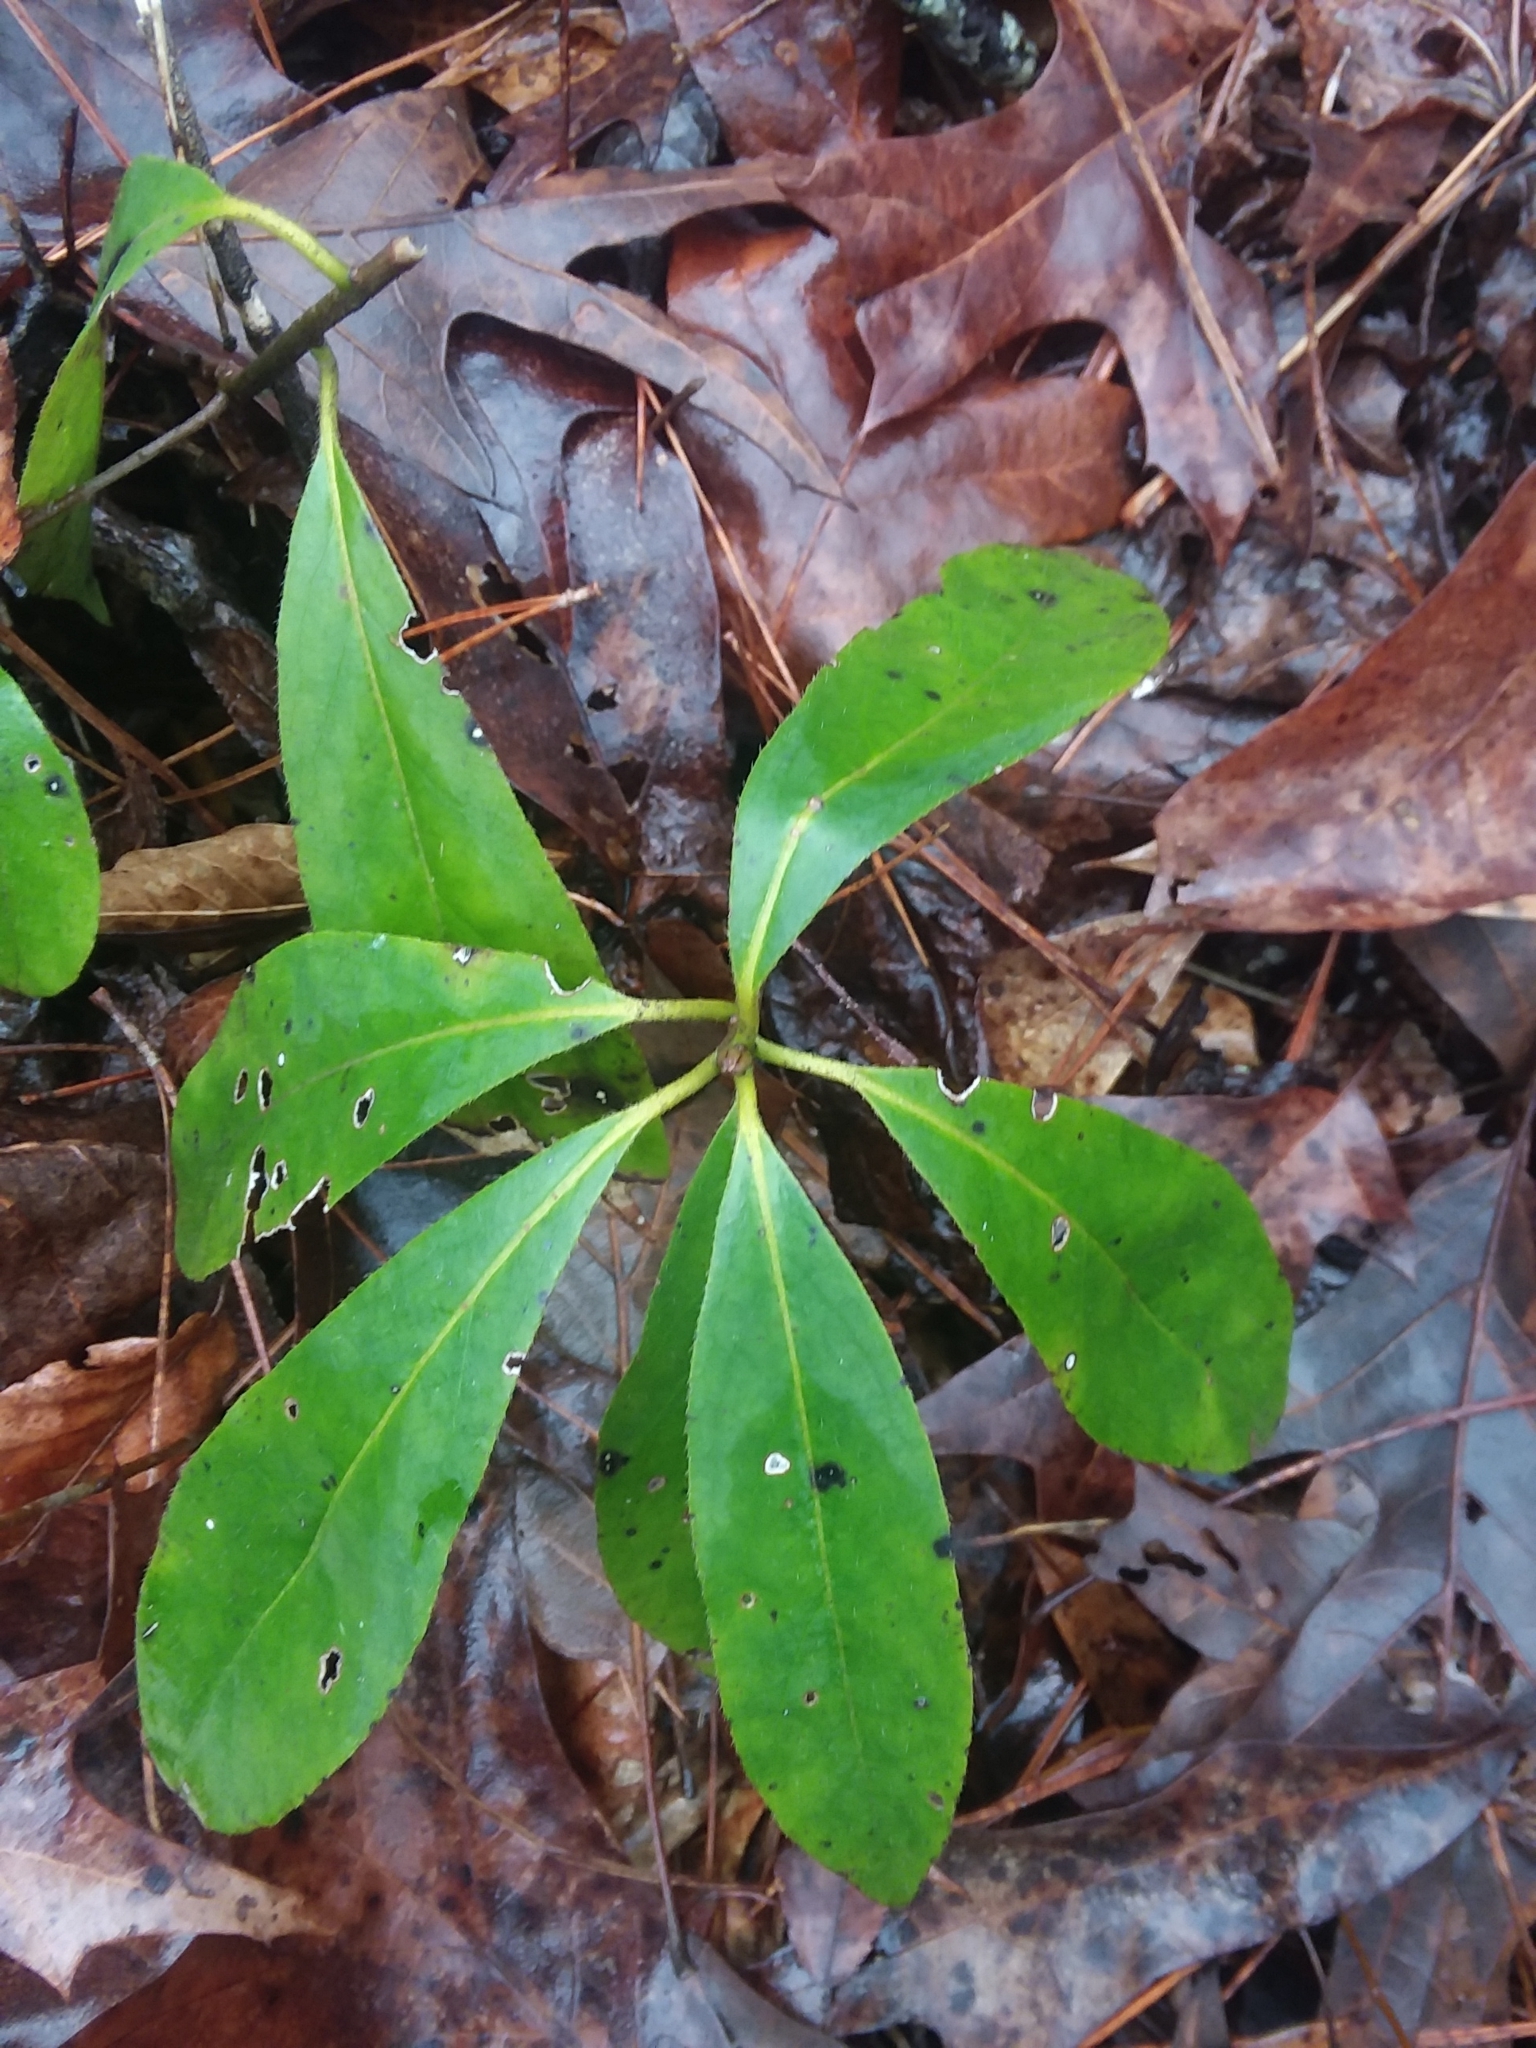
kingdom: Plantae
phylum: Tracheophyta
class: Magnoliopsida
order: Ericales
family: Symplocaceae
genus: Symplocos
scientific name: Symplocos tinctoria
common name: Horse-sugar
